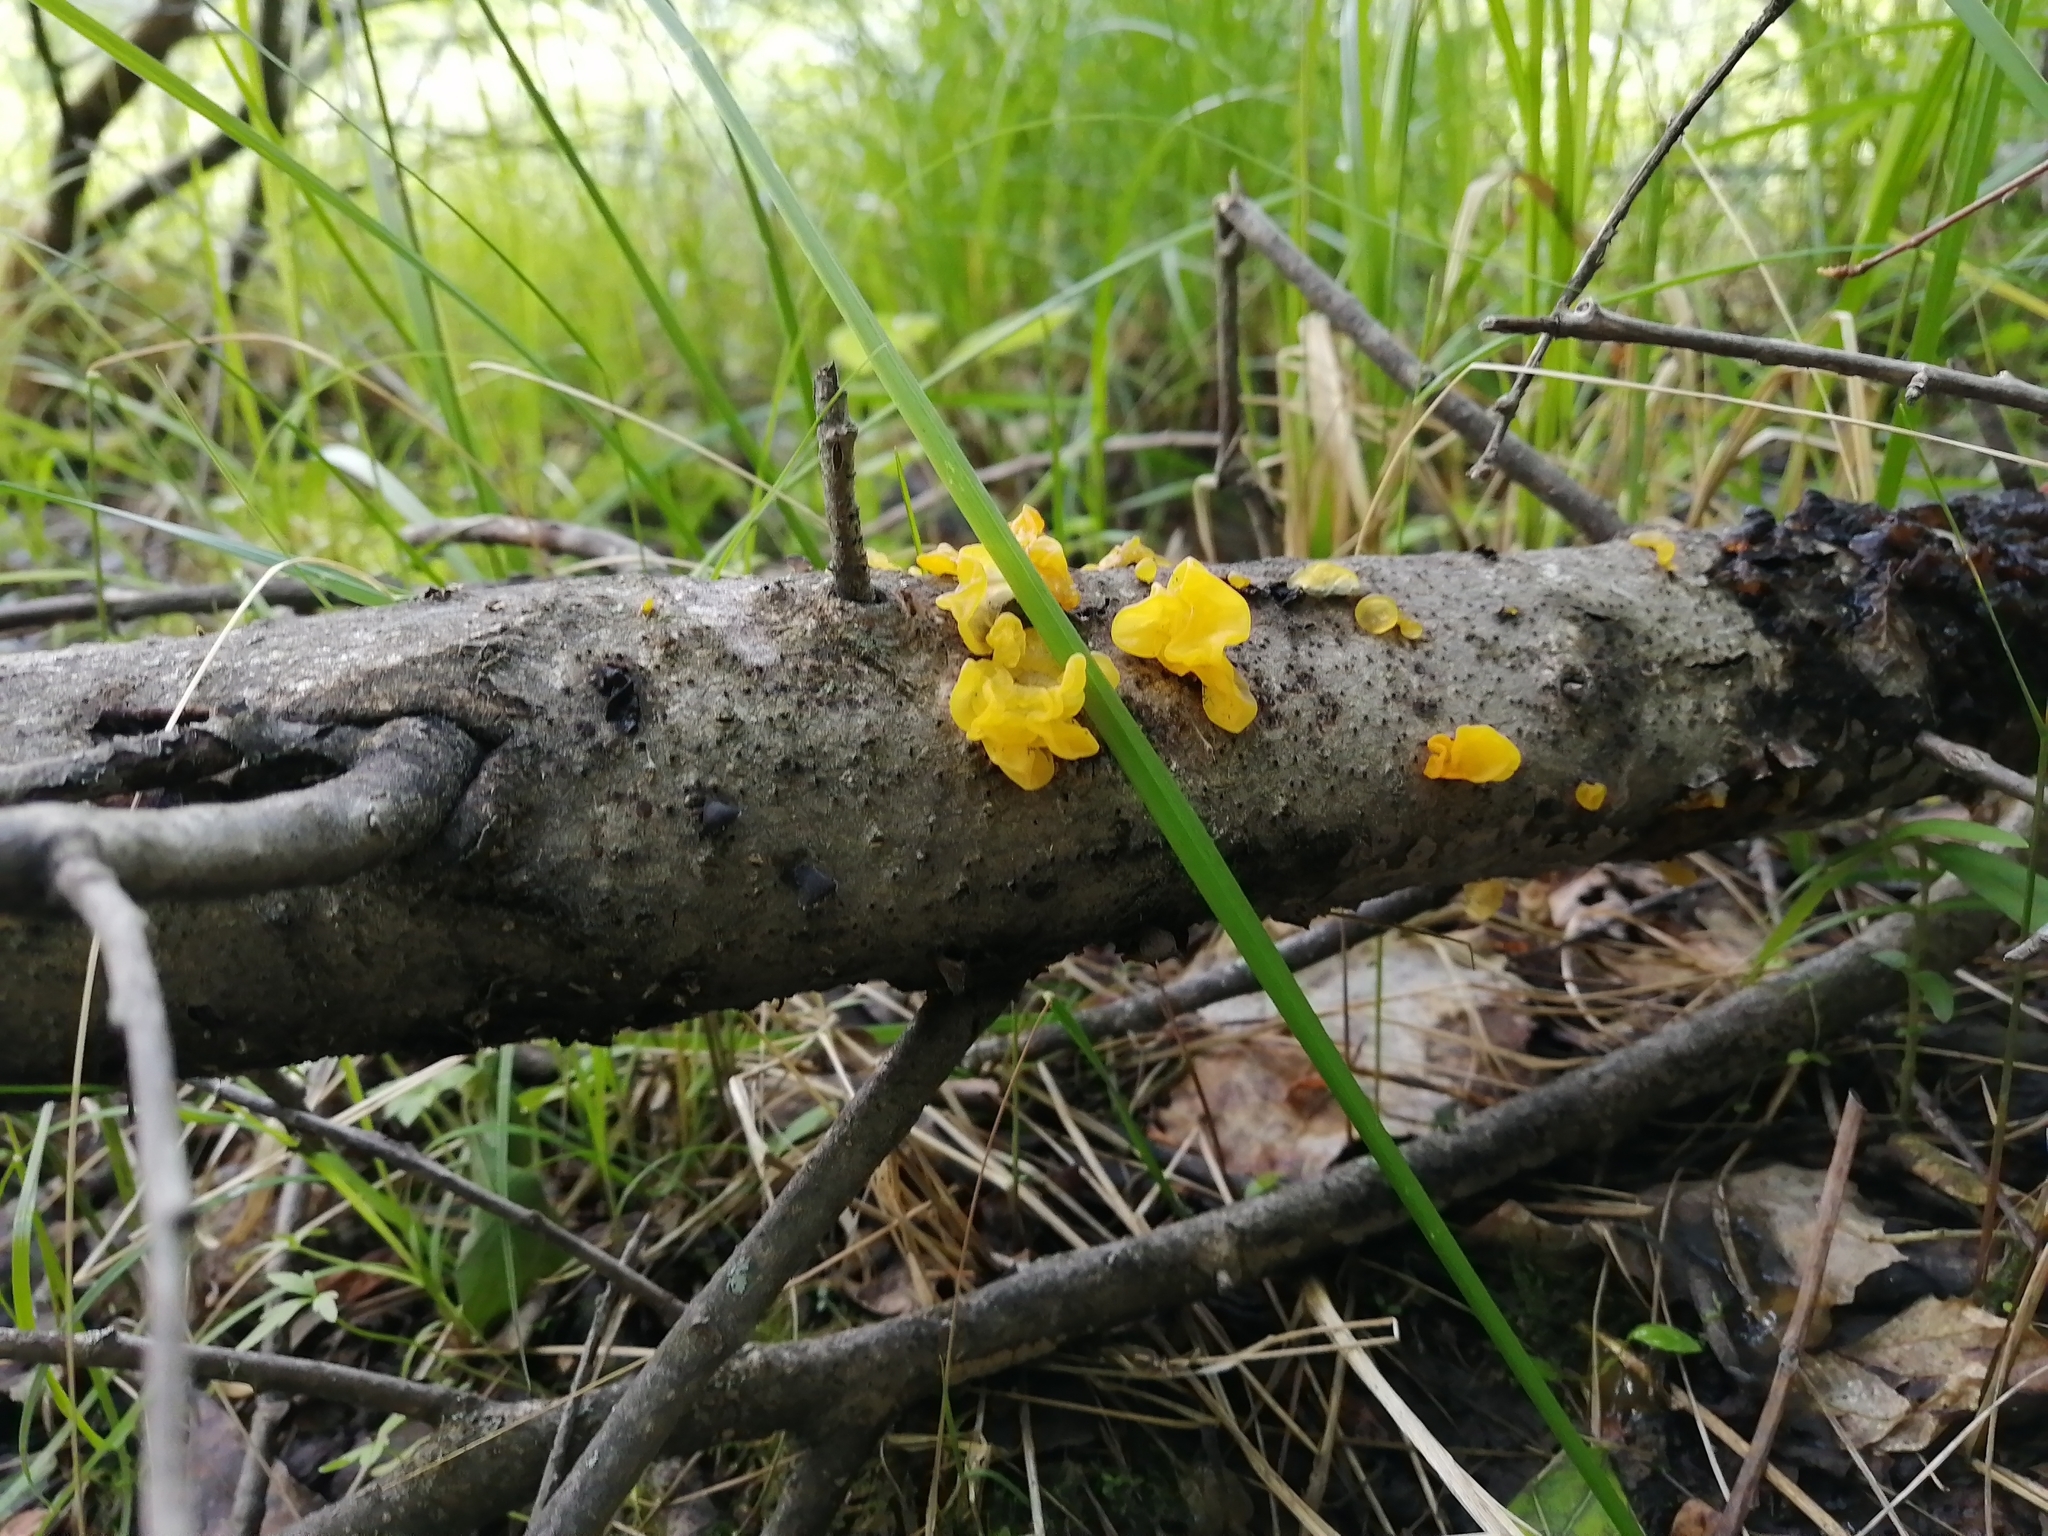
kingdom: Fungi
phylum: Basidiomycota
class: Tremellomycetes
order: Tremellales
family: Tremellaceae
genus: Tremella
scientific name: Tremella mesenterica
